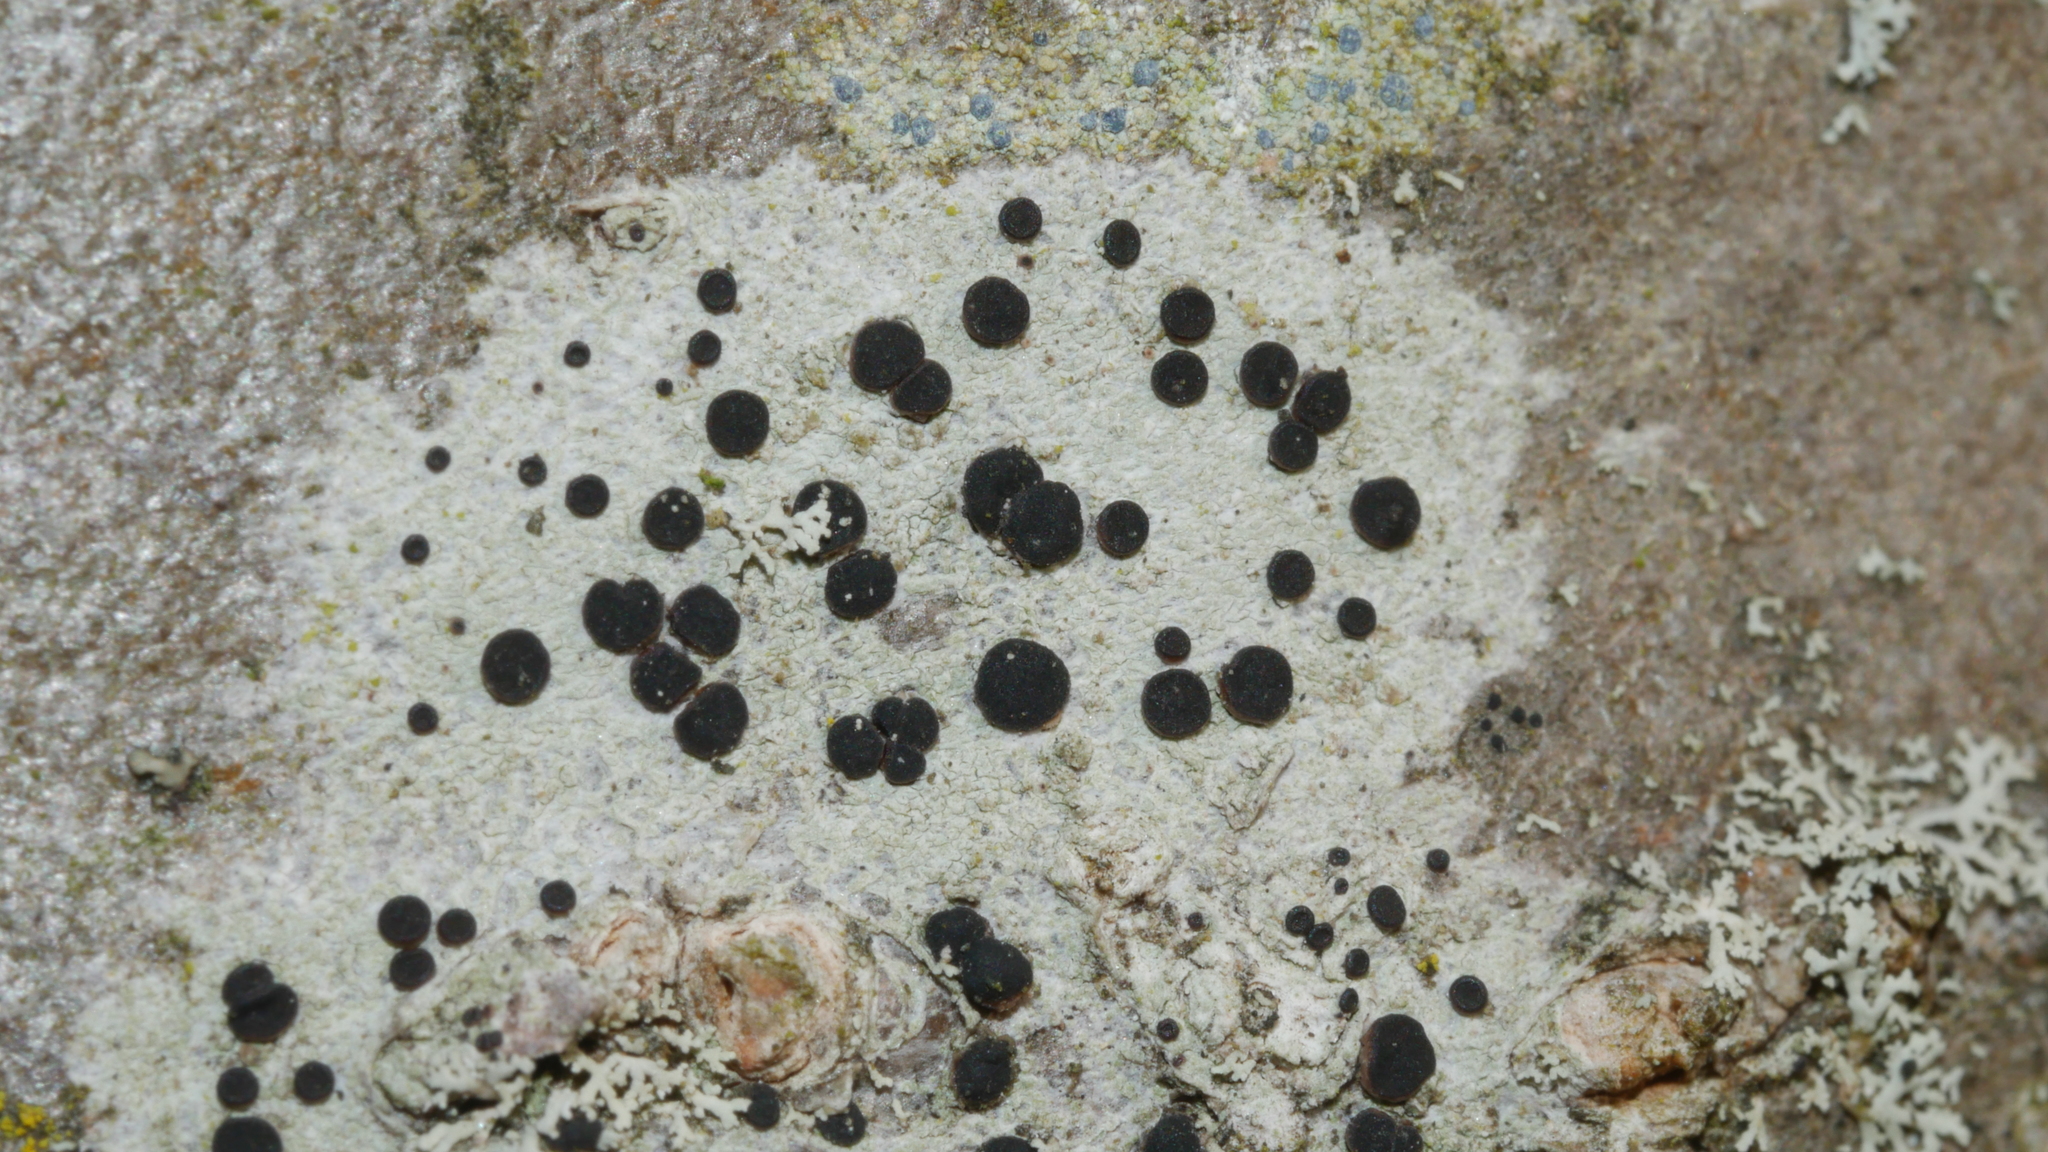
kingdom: Fungi
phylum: Ascomycota
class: Lecanoromycetes
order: Caliciales
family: Caliciaceae
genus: Buellia
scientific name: Buellia erubescens
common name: Common button lichen
